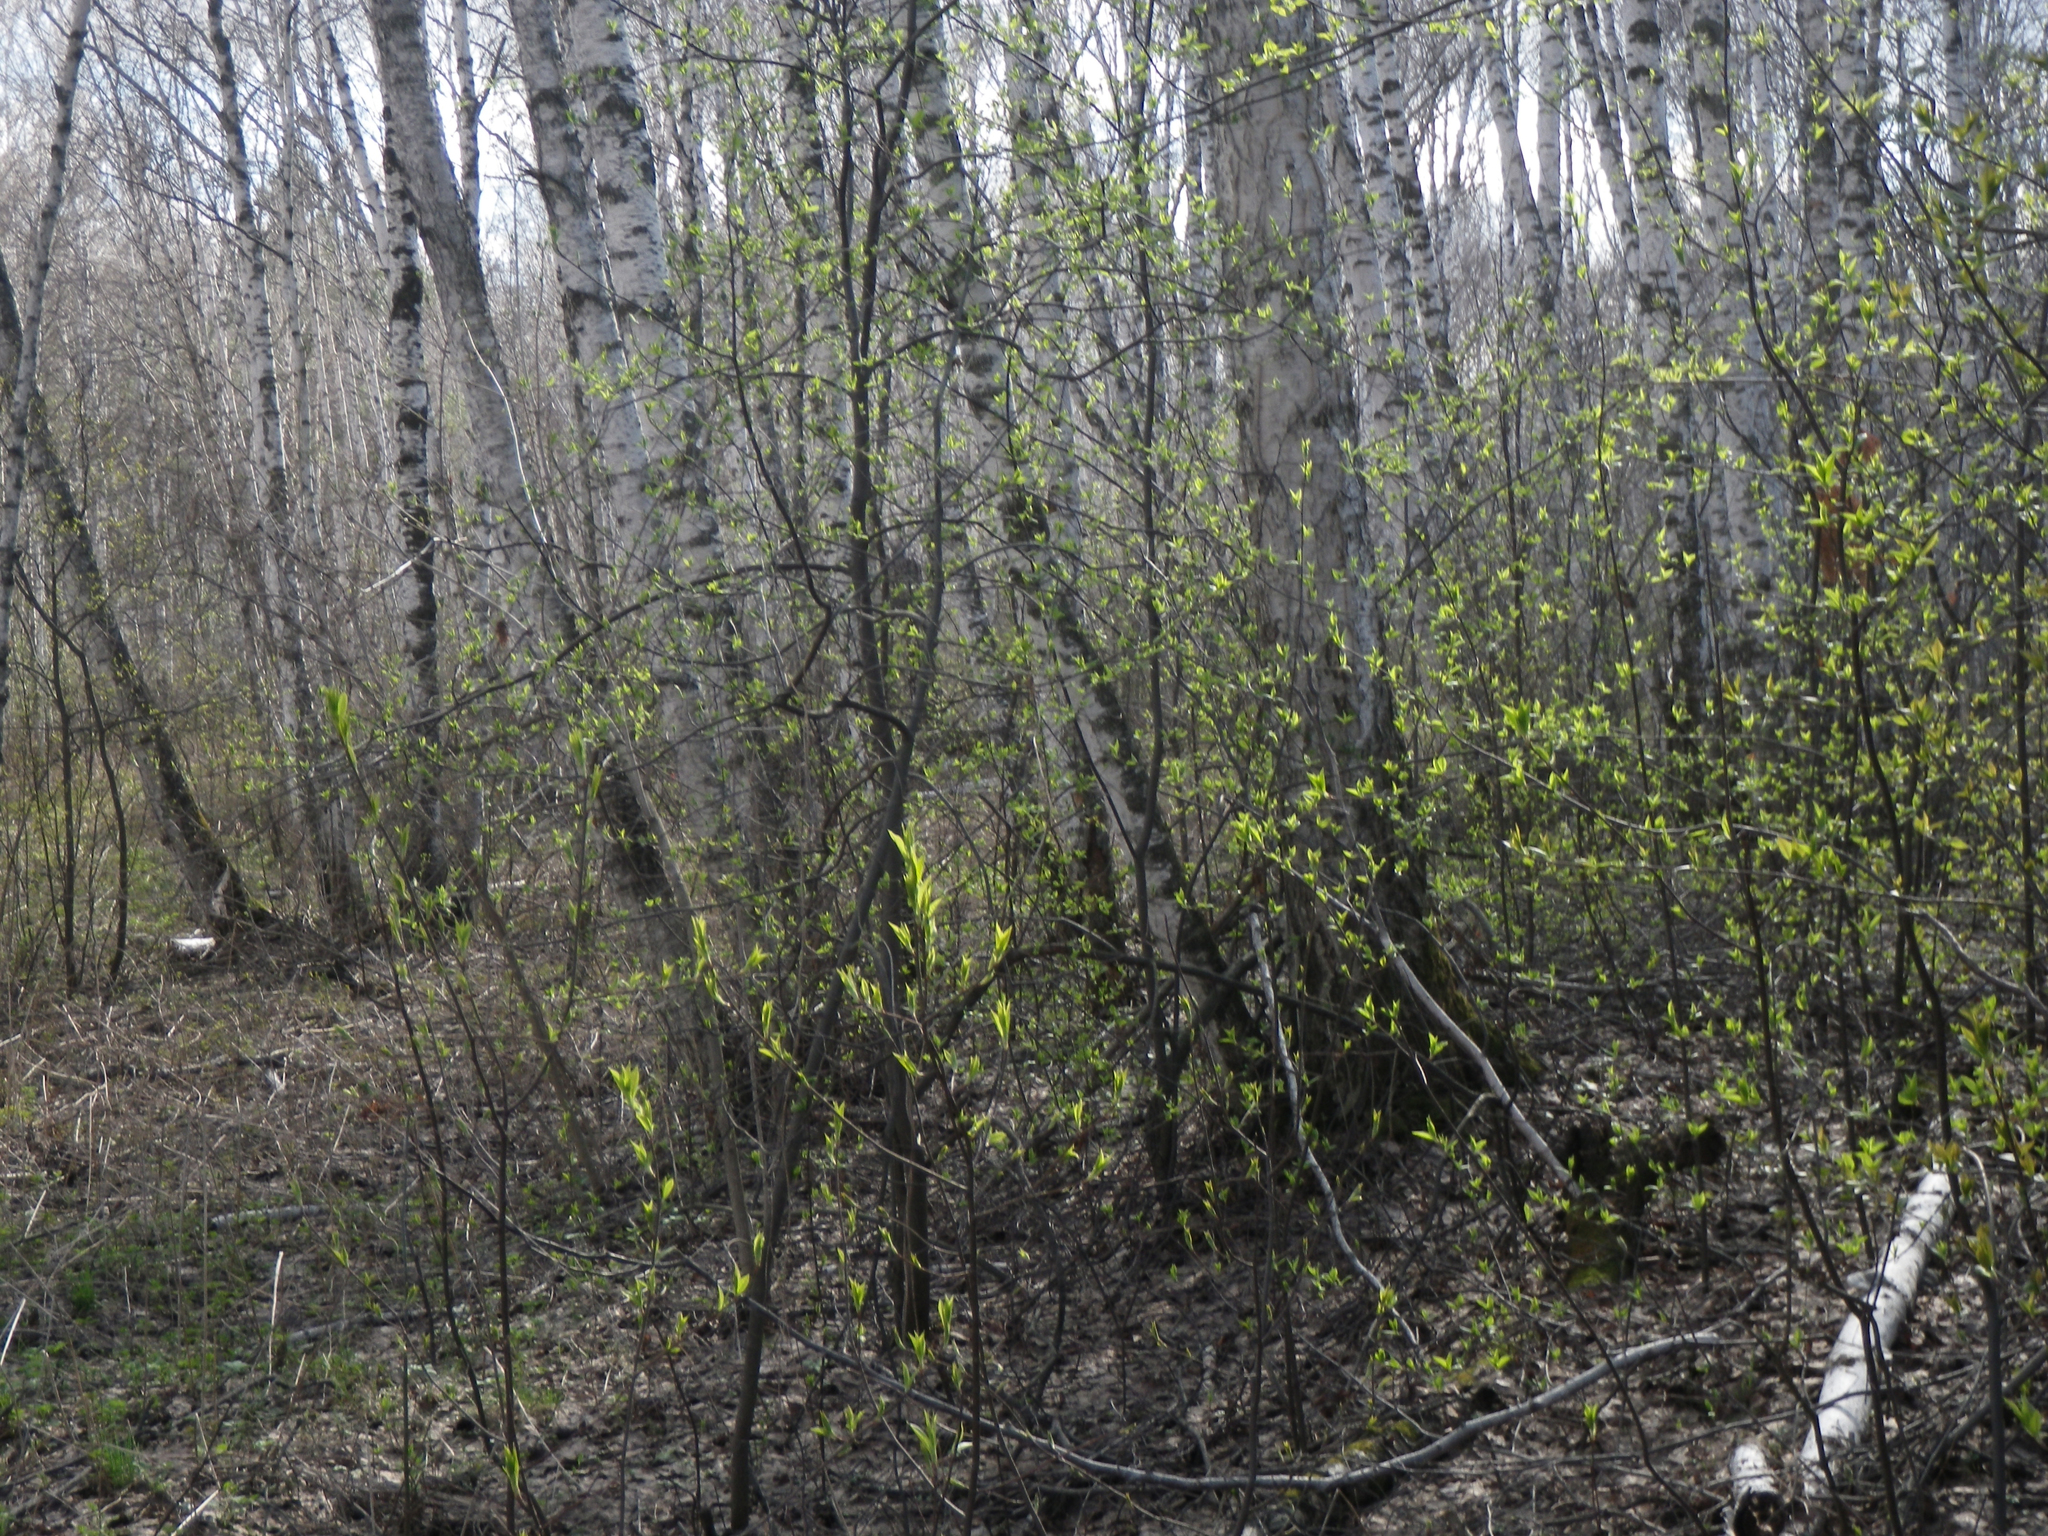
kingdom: Plantae
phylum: Tracheophyta
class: Magnoliopsida
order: Rosales
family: Rosaceae
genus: Prunus
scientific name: Prunus padus
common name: Bird cherry
